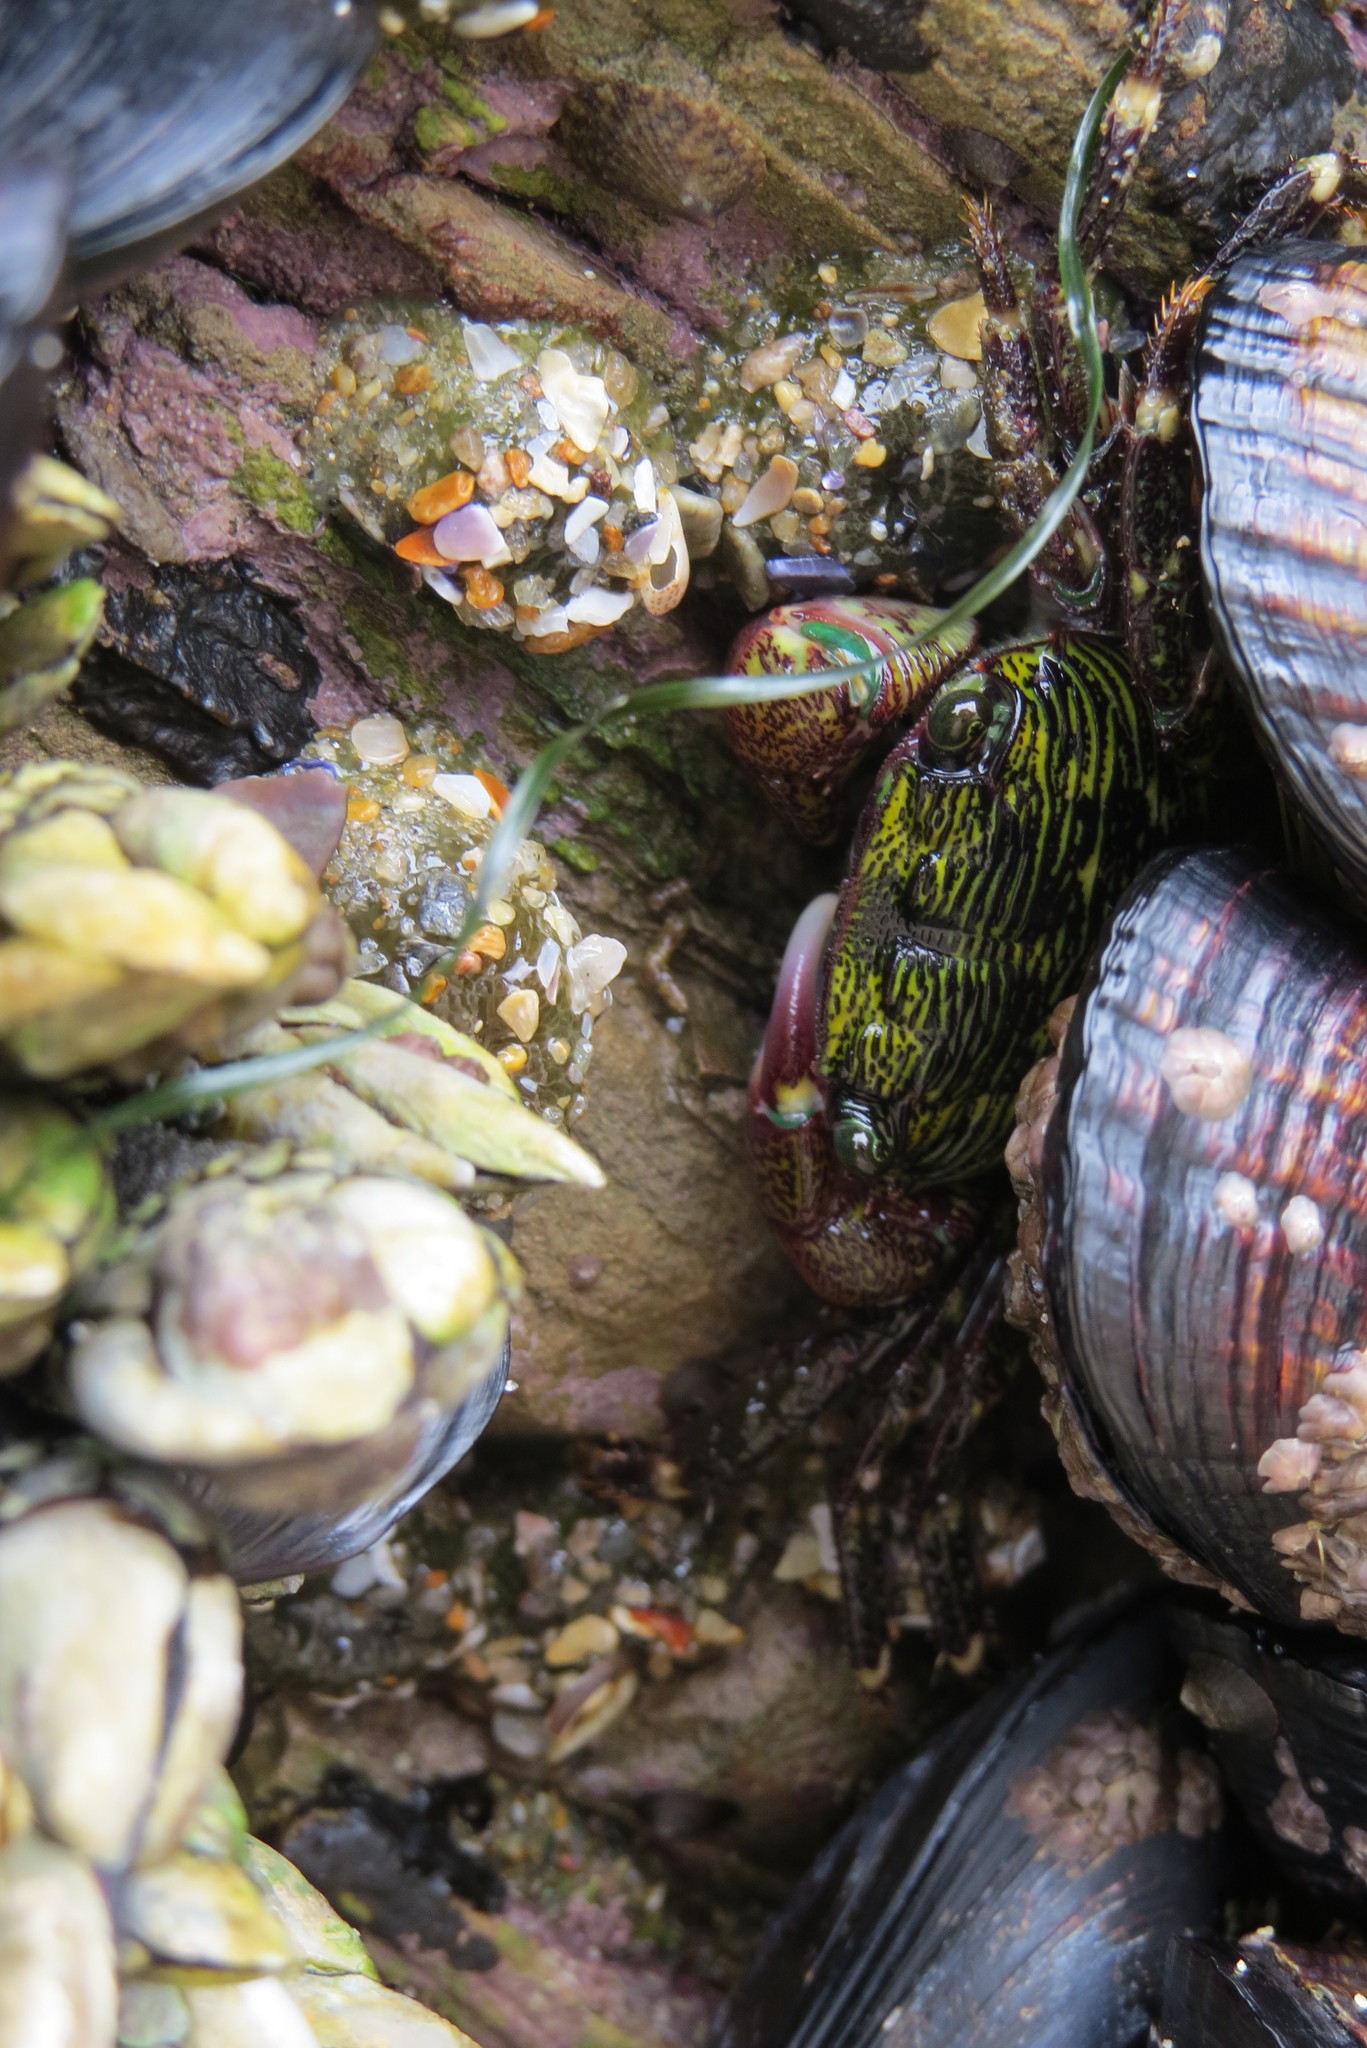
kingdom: Animalia
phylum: Arthropoda
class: Malacostraca
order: Decapoda
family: Grapsidae
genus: Pachygrapsus
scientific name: Pachygrapsus crassipes
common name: Striped shore crab
